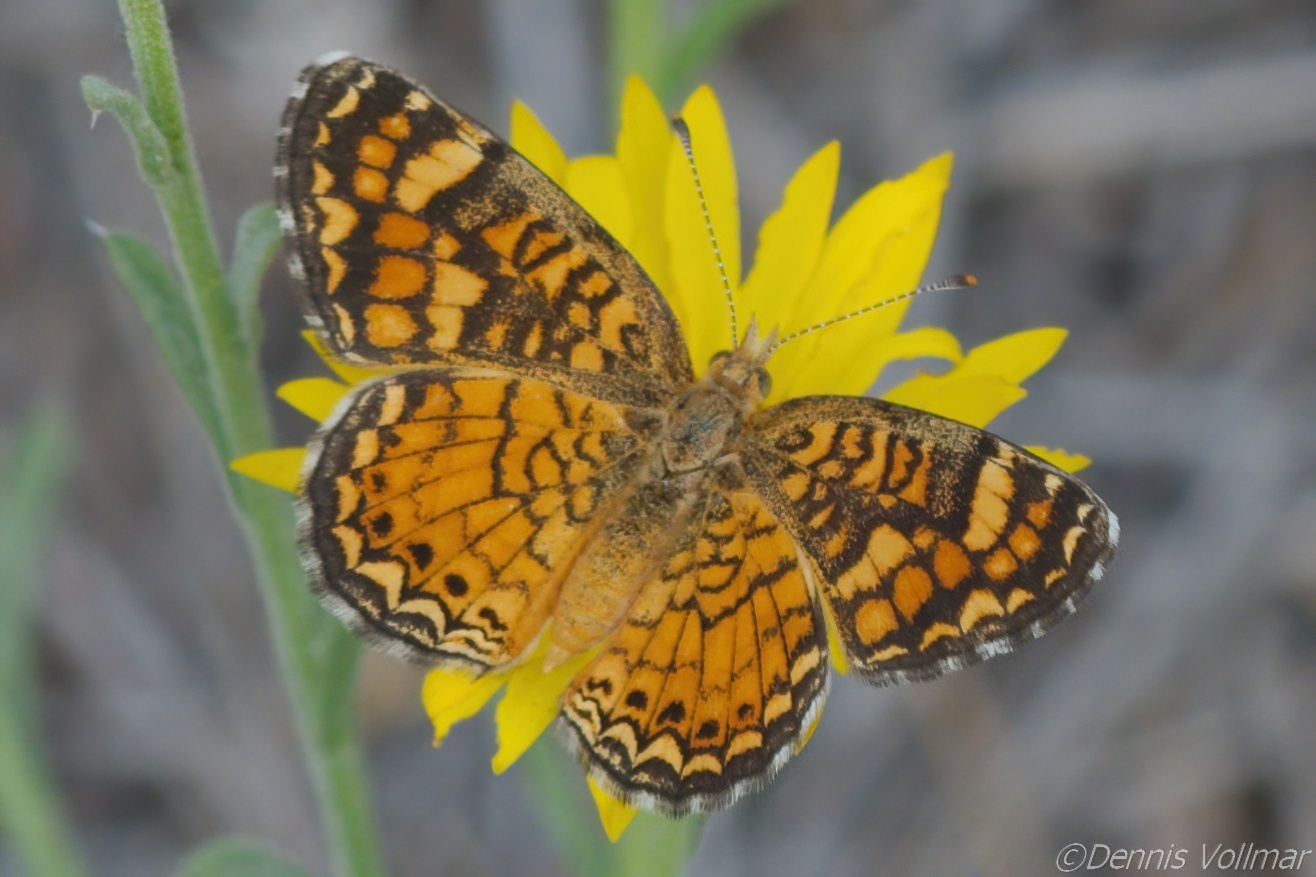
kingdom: Animalia
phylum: Arthropoda
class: Insecta
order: Lepidoptera
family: Nymphalidae
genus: Phyciodes
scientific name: Phyciodes vesta
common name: Vesta crescent
